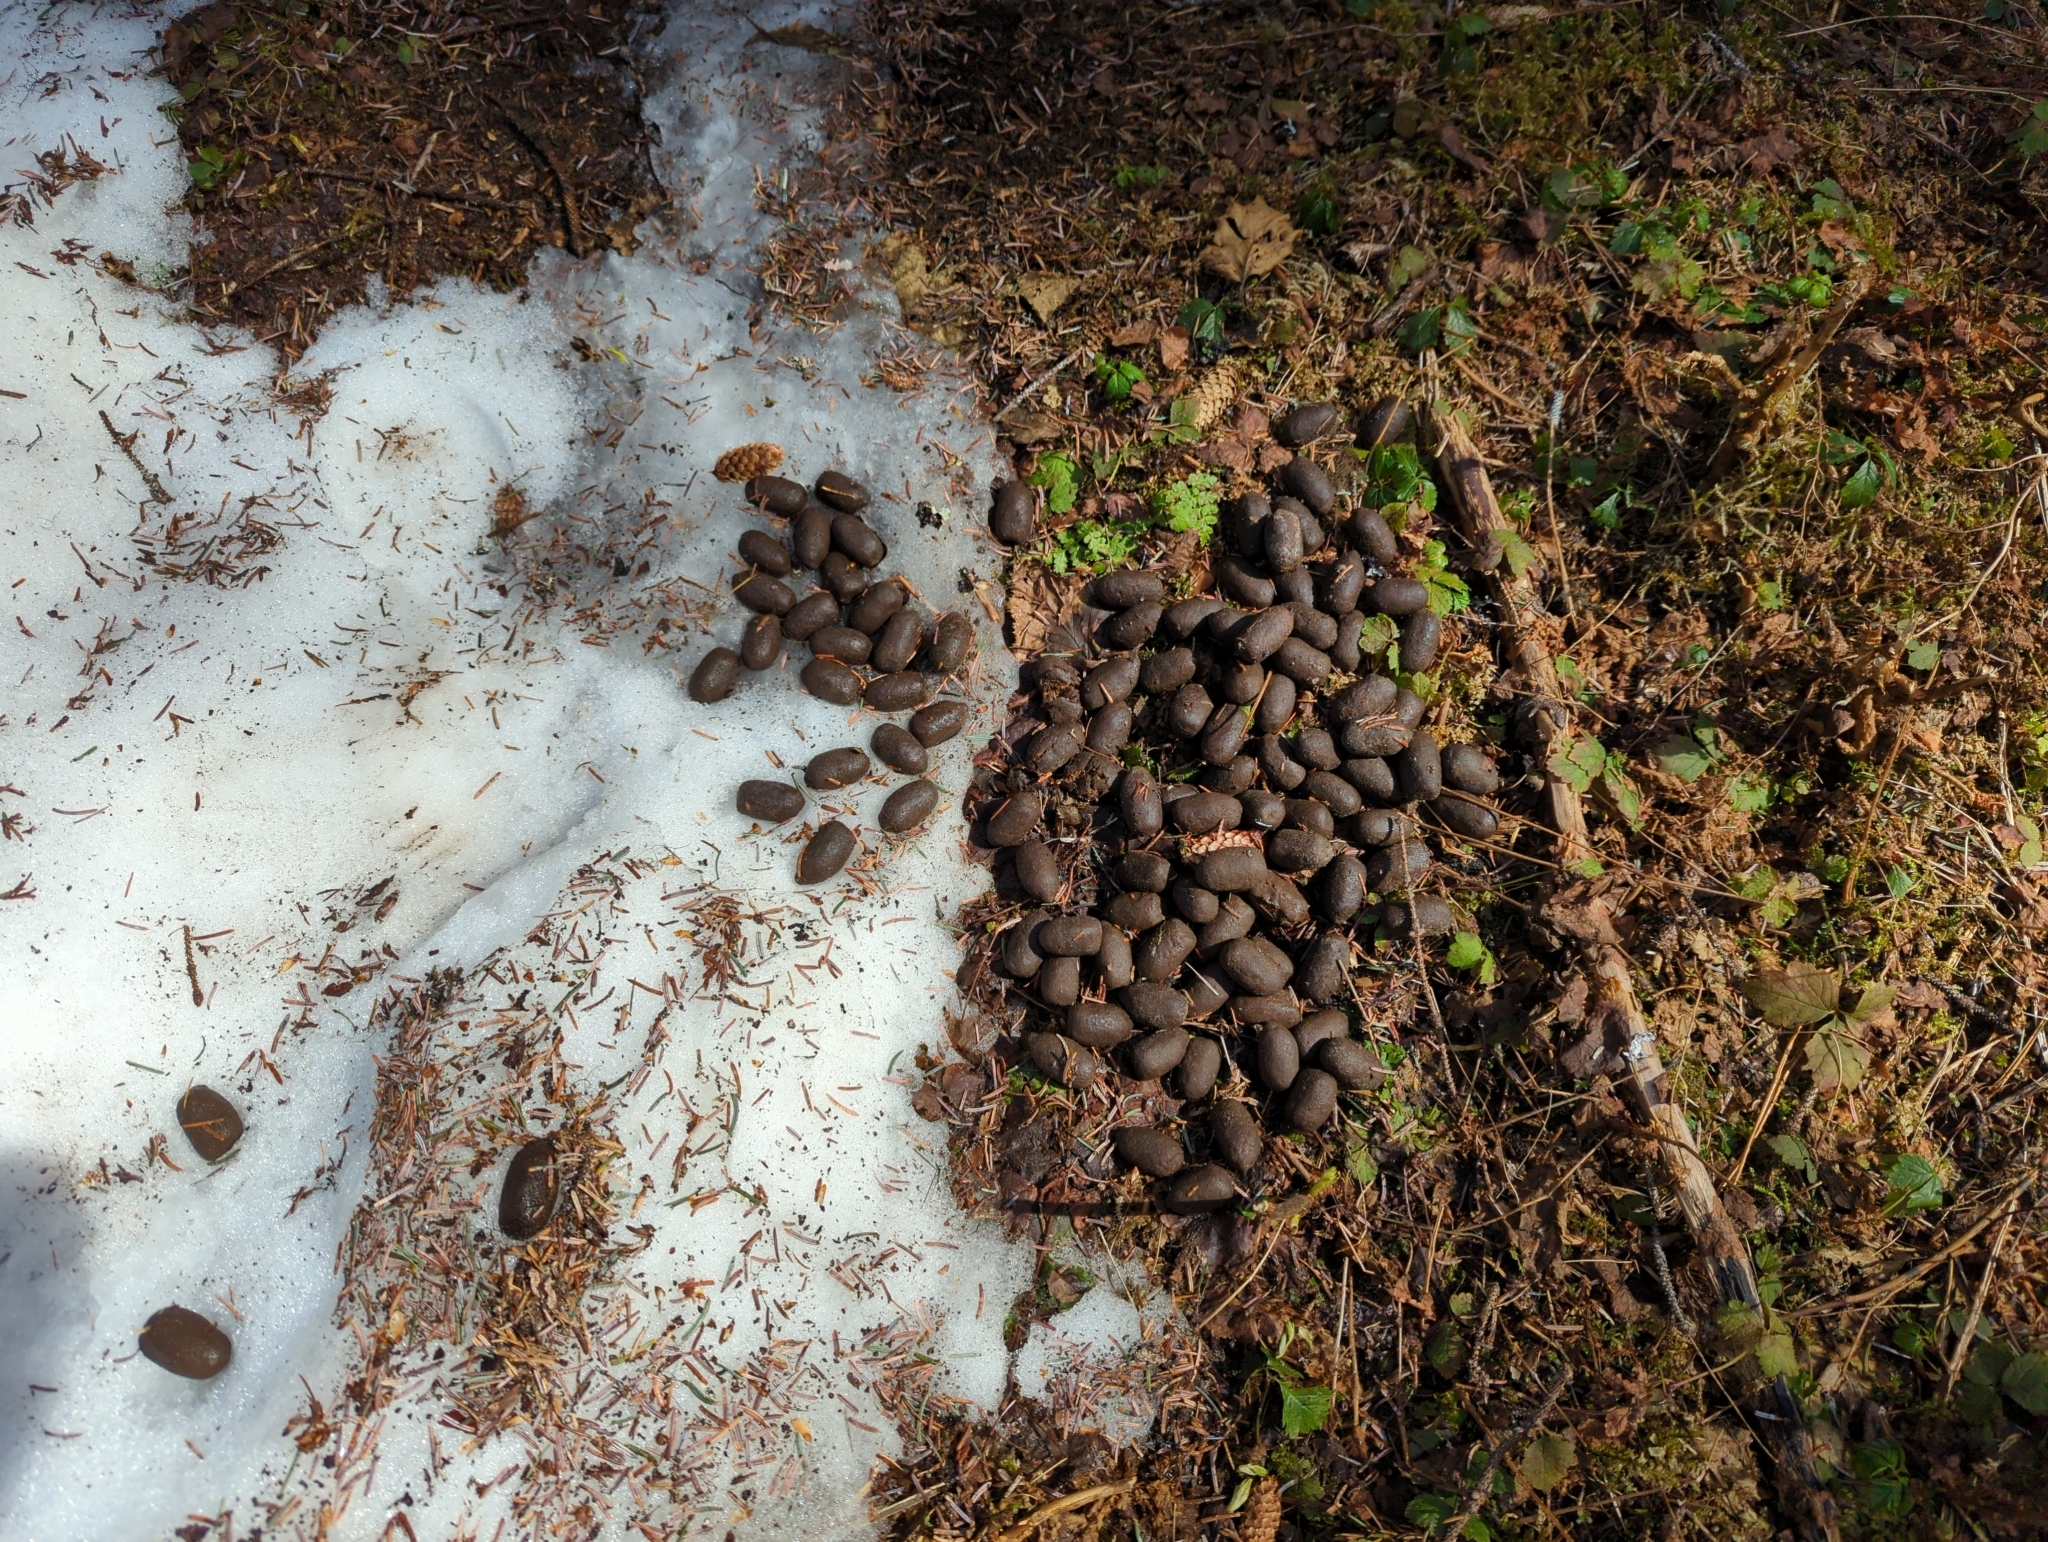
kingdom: Animalia
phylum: Chordata
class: Mammalia
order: Artiodactyla
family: Cervidae
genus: Alces
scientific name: Alces alces
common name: Moose
